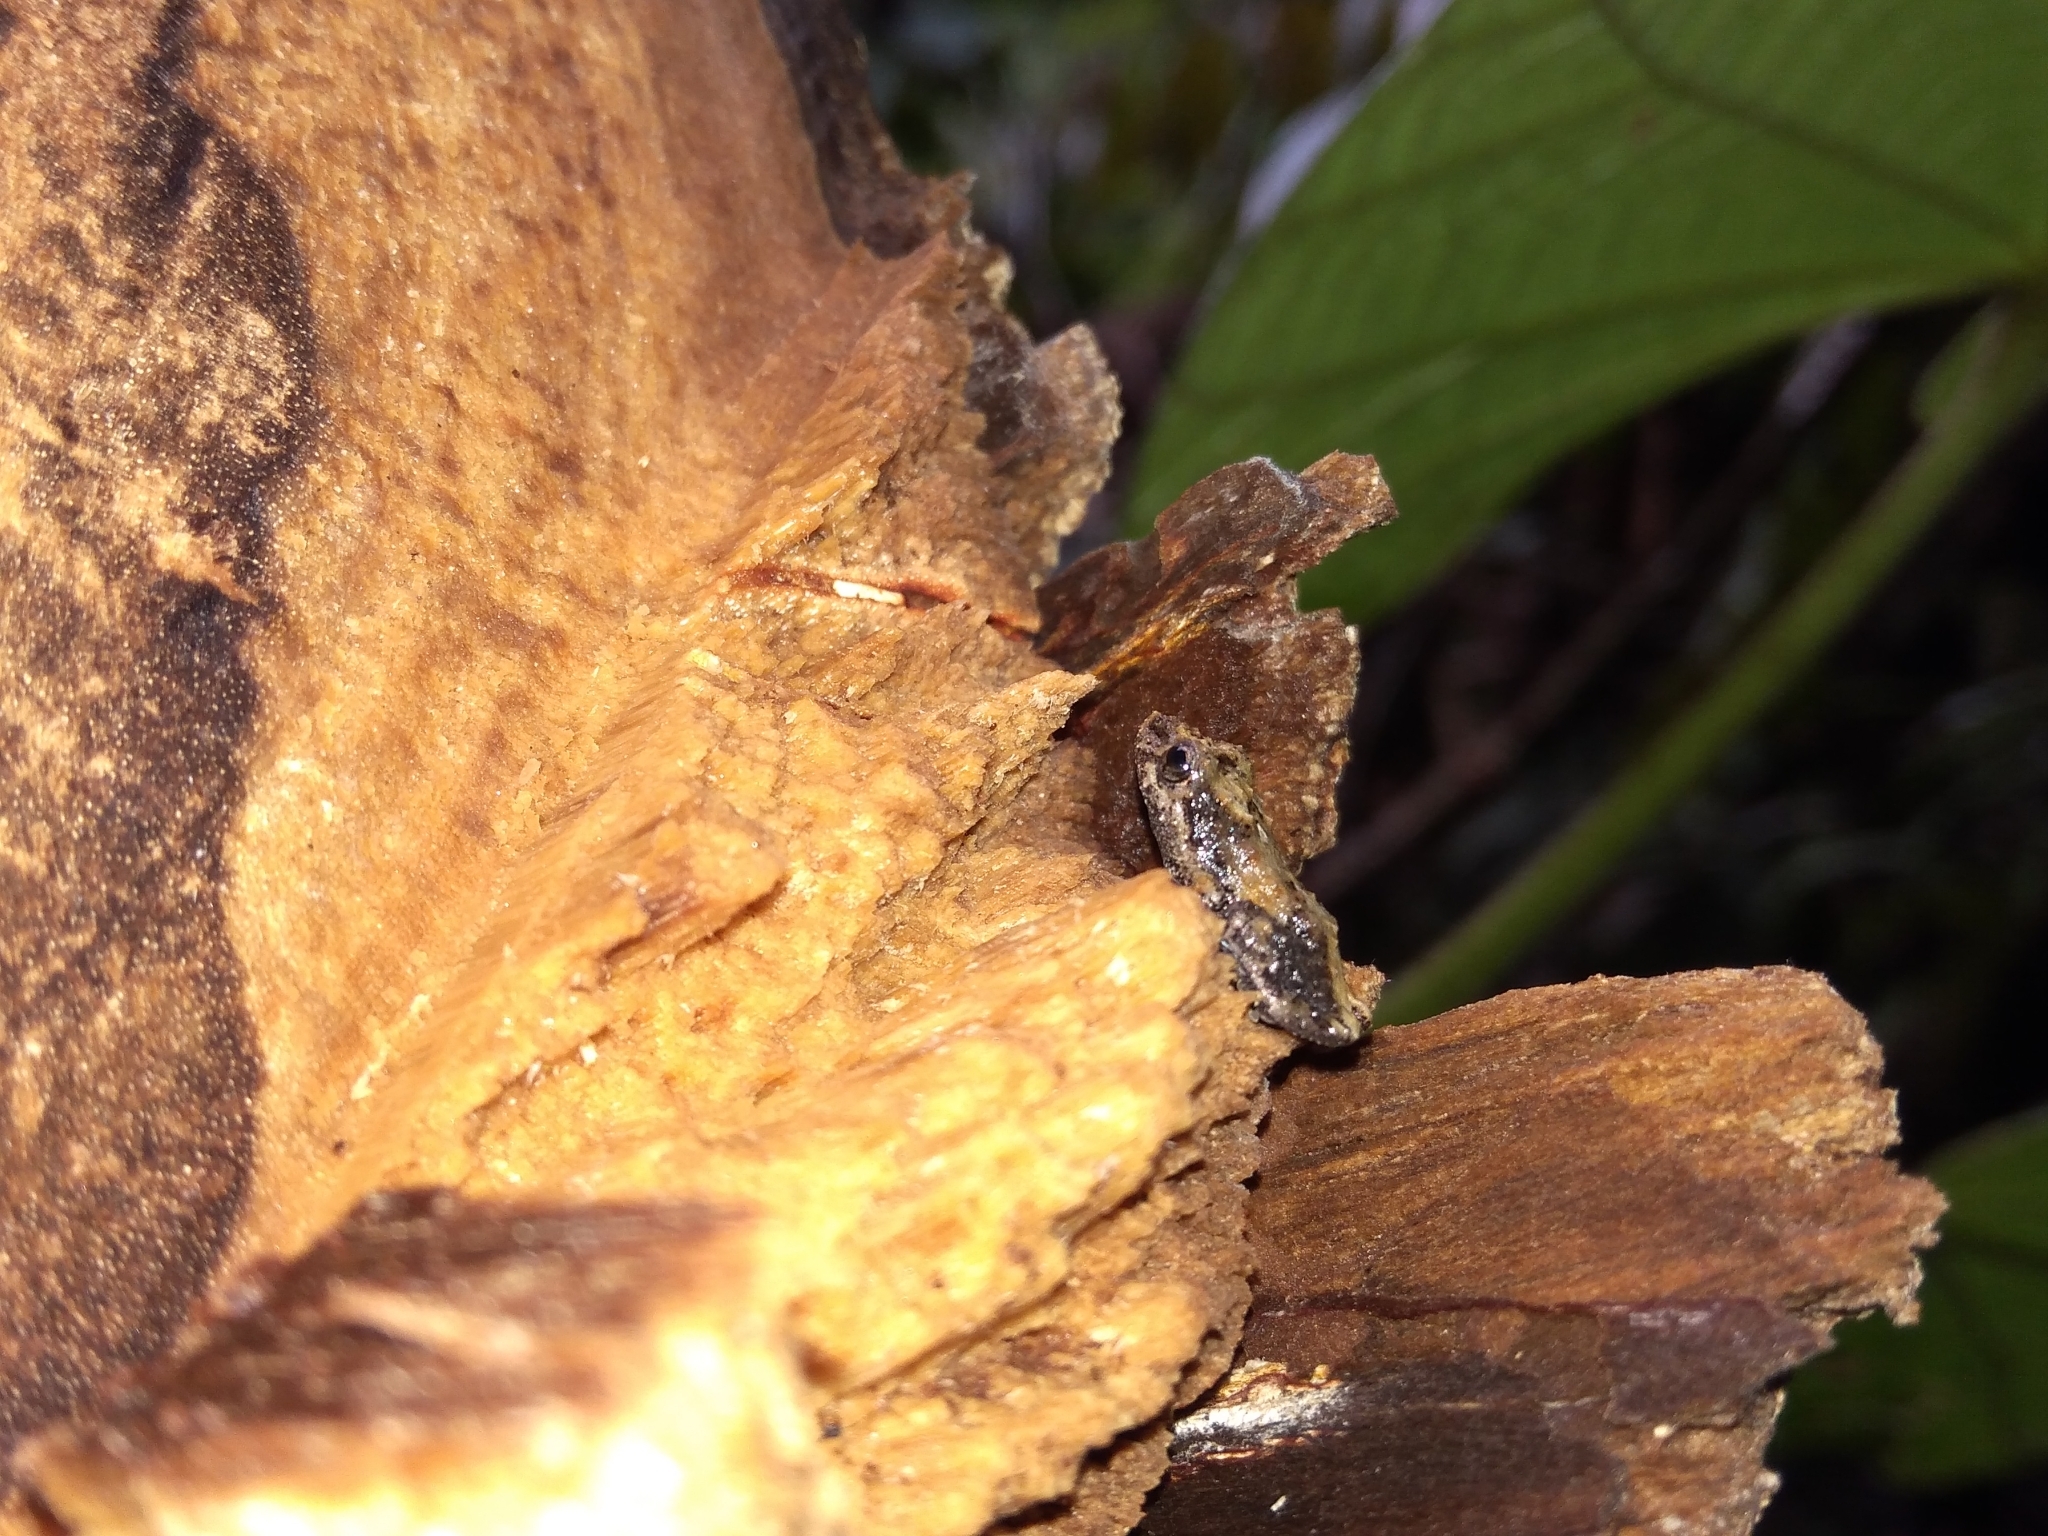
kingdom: Animalia
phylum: Chordata
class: Amphibia
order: Anura
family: Craugastoridae
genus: Pristimantis
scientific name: Pristimantis brevicrus
